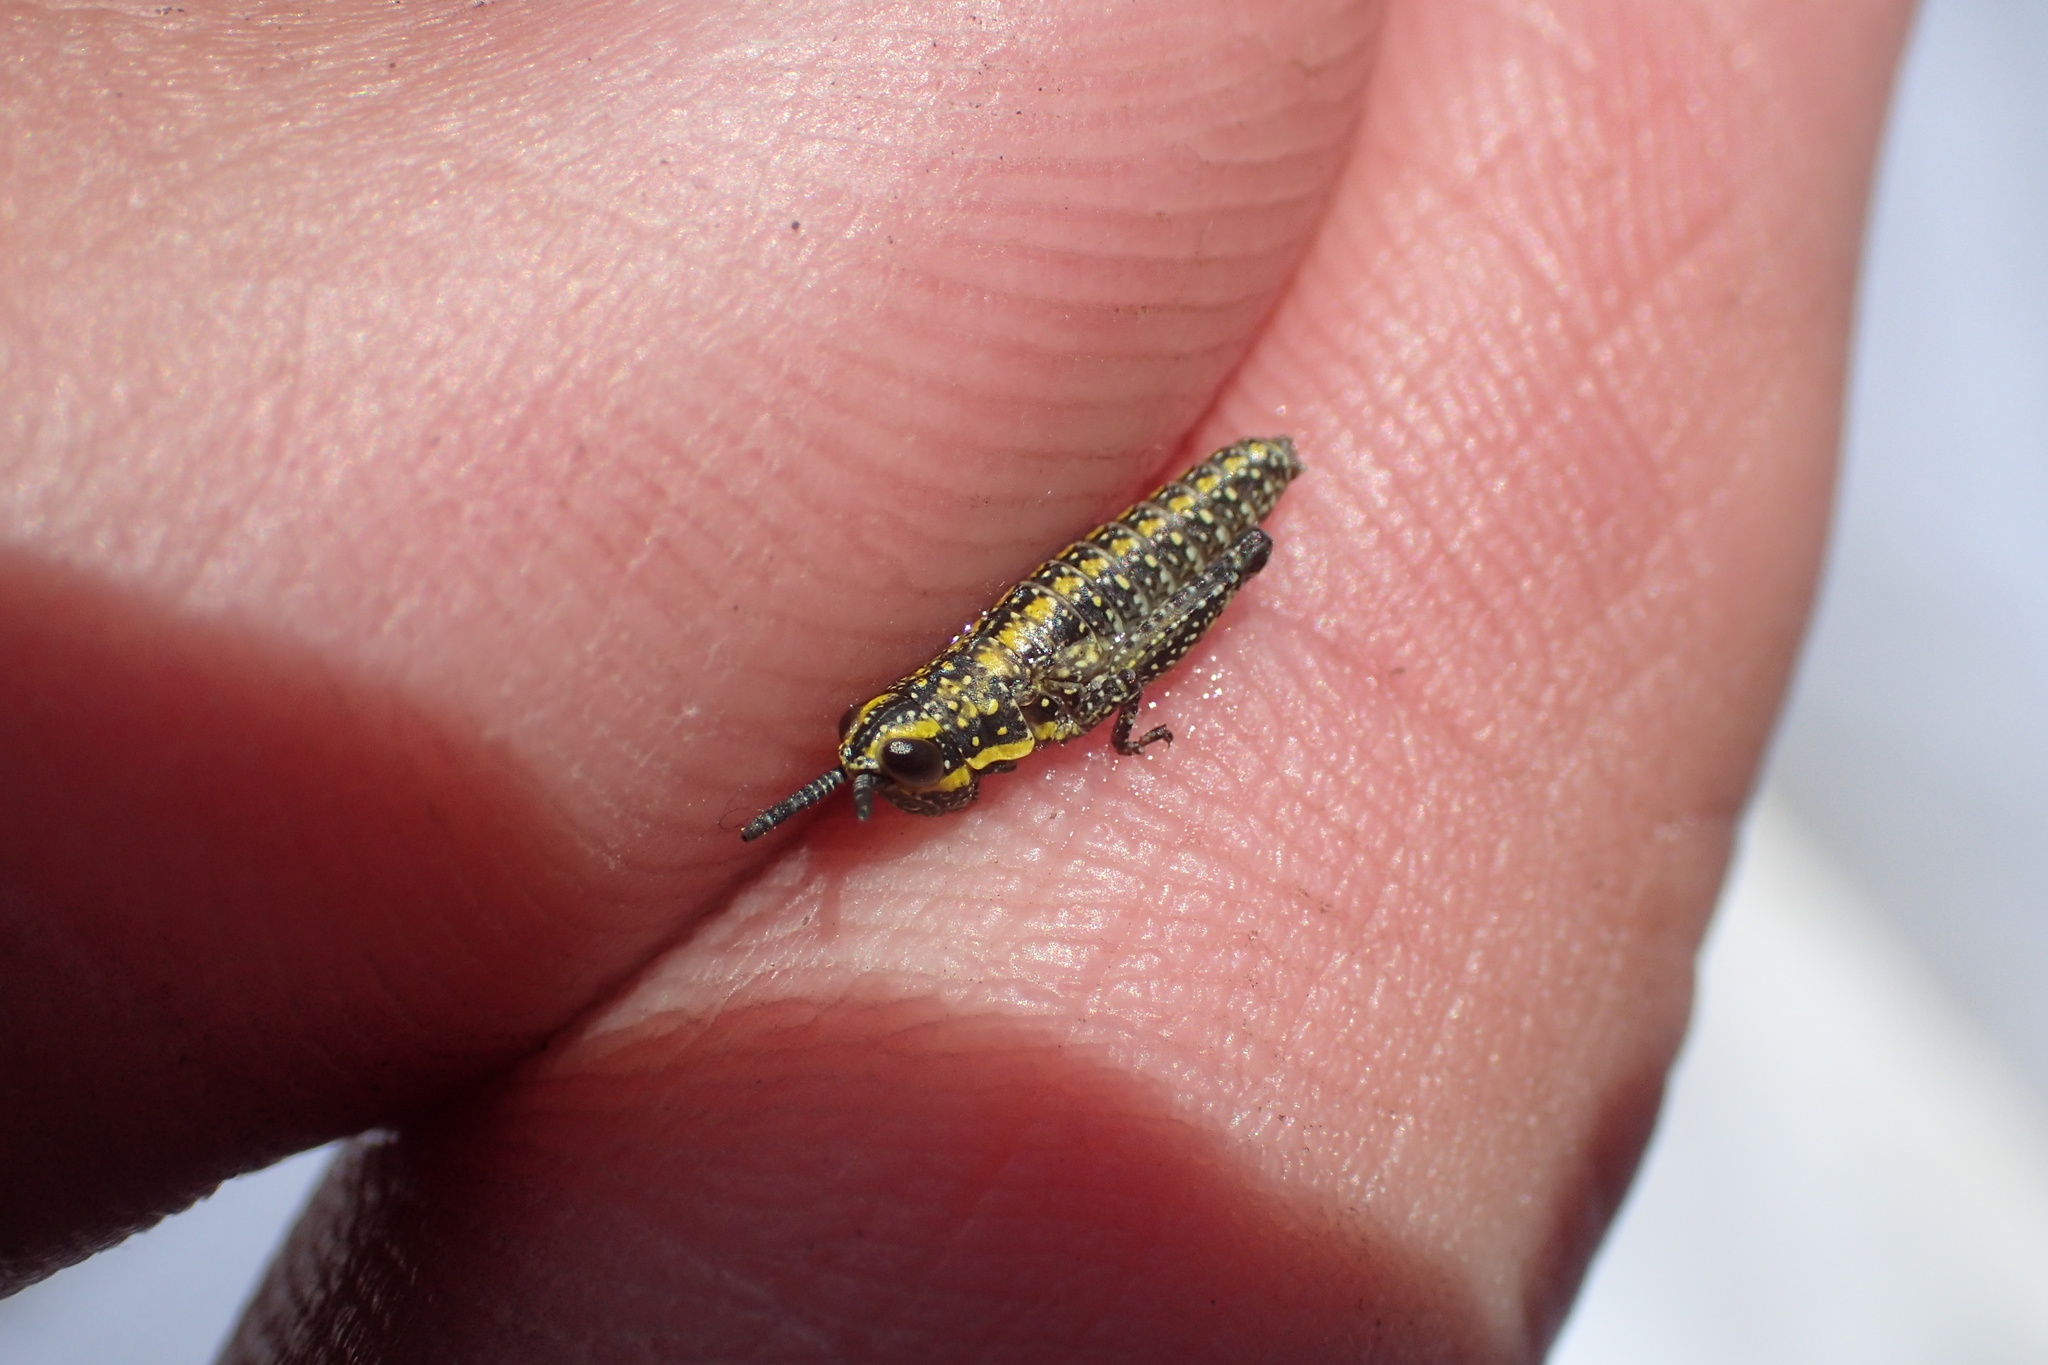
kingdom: Animalia
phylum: Arthropoda
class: Insecta
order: Orthoptera
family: Pyrgomorphidae
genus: Monistria
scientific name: Monistria concinna
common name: Southern pyrgomorph
